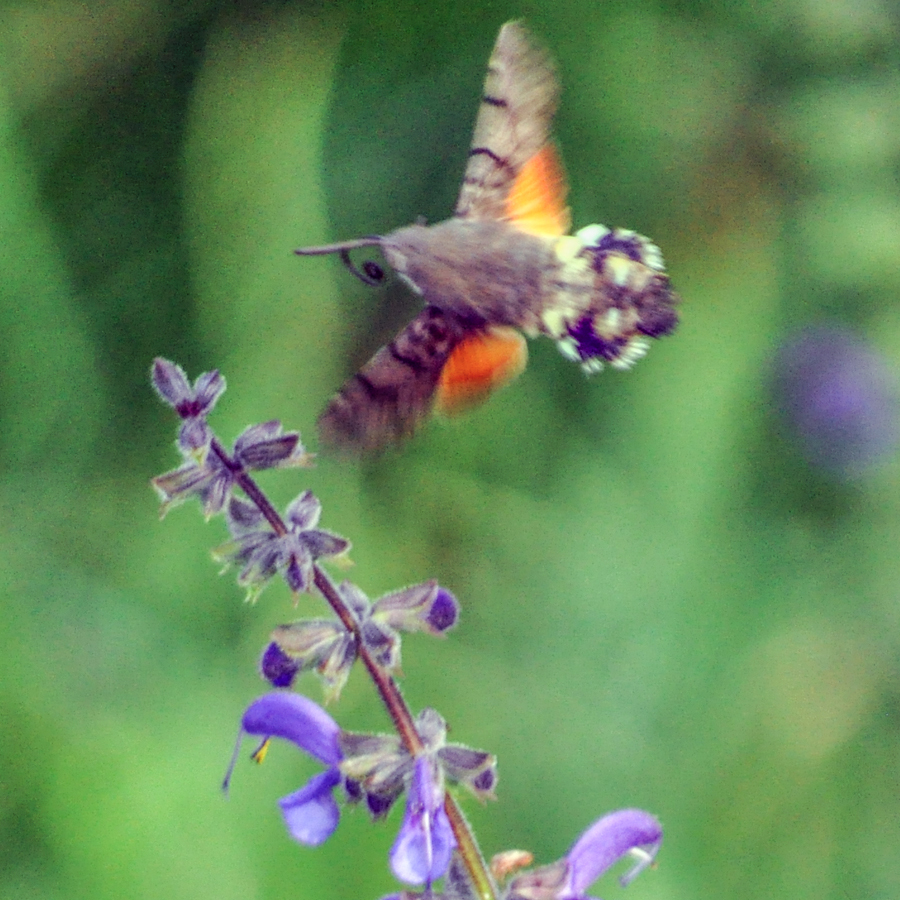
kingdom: Animalia
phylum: Arthropoda
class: Insecta
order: Lepidoptera
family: Sphingidae
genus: Macroglossum
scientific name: Macroglossum stellatarum
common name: Humming-bird hawk-moth
